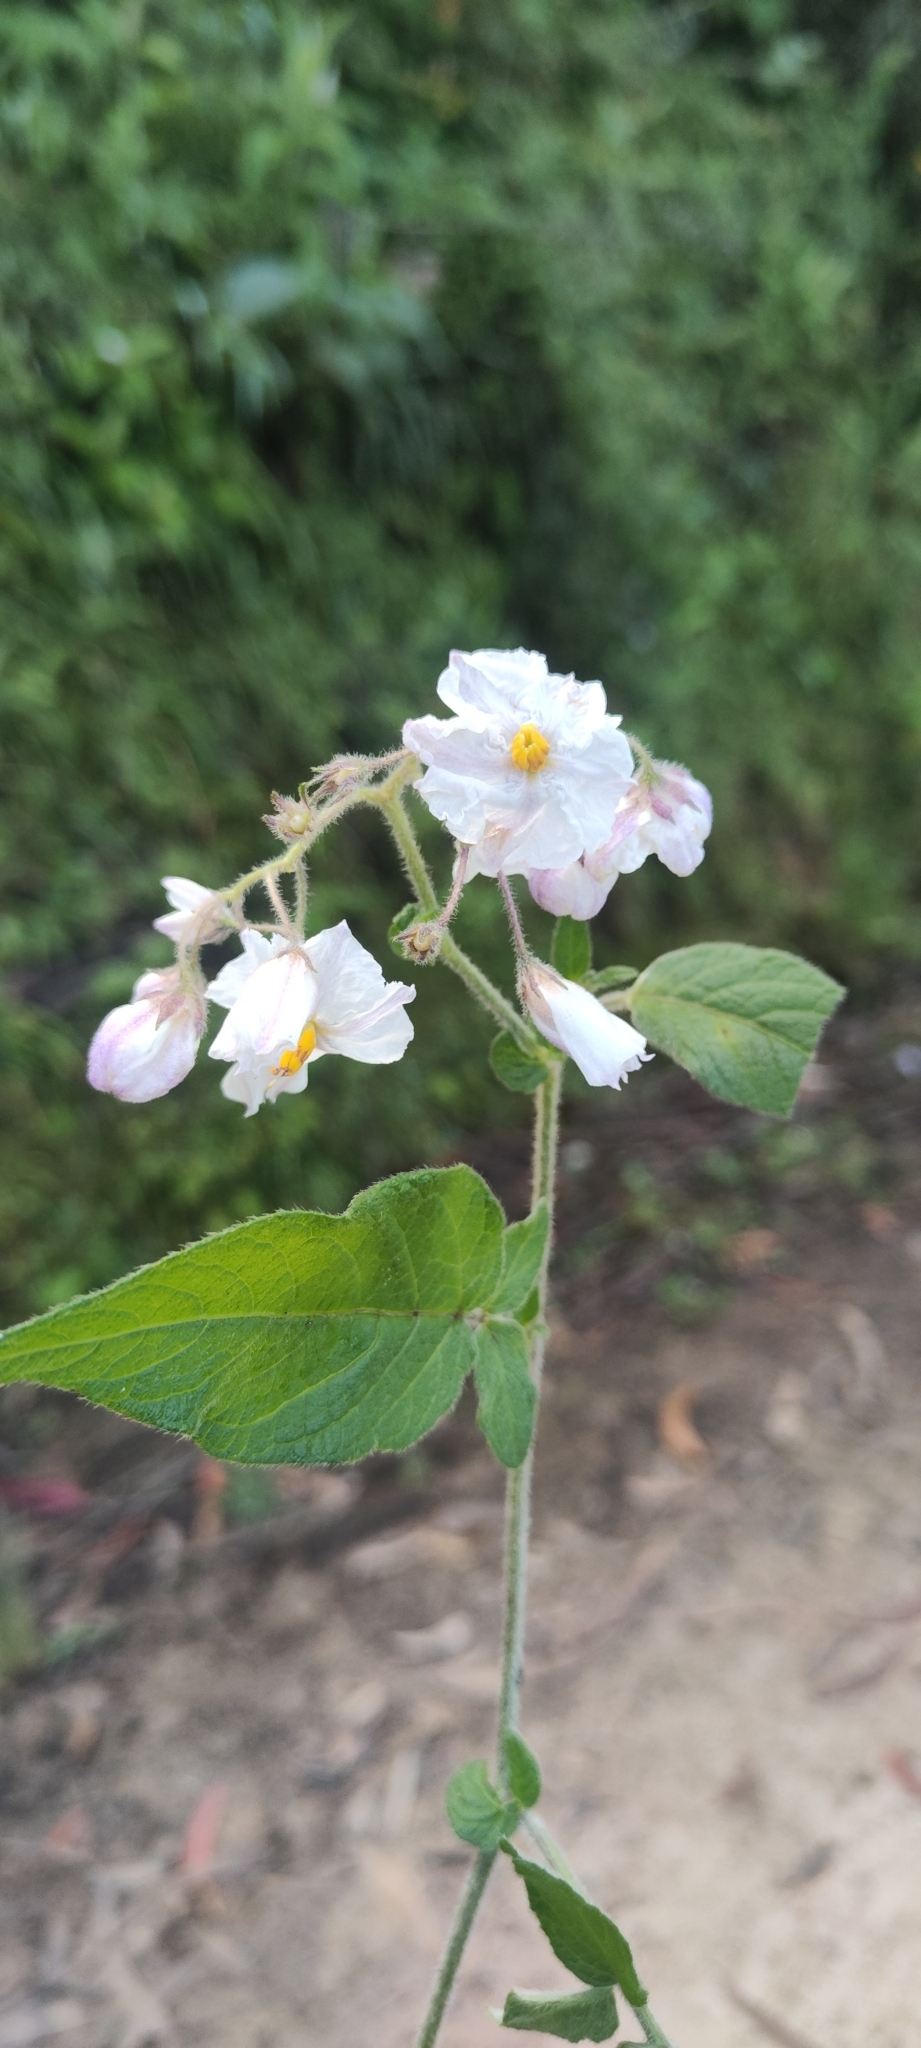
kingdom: Plantae
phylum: Tracheophyta
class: Magnoliopsida
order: Solanales
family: Solanaceae
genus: Solanum
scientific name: Solanum caripense
